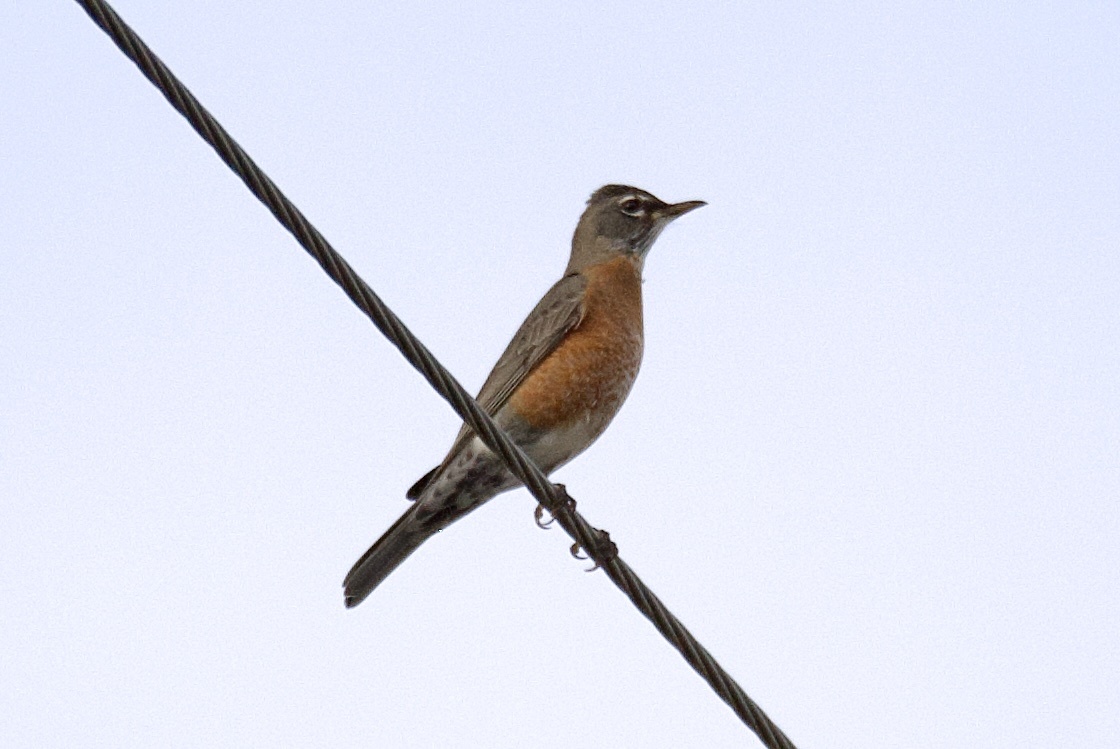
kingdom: Animalia
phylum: Chordata
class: Aves
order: Passeriformes
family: Turdidae
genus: Turdus
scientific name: Turdus migratorius
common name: American robin
